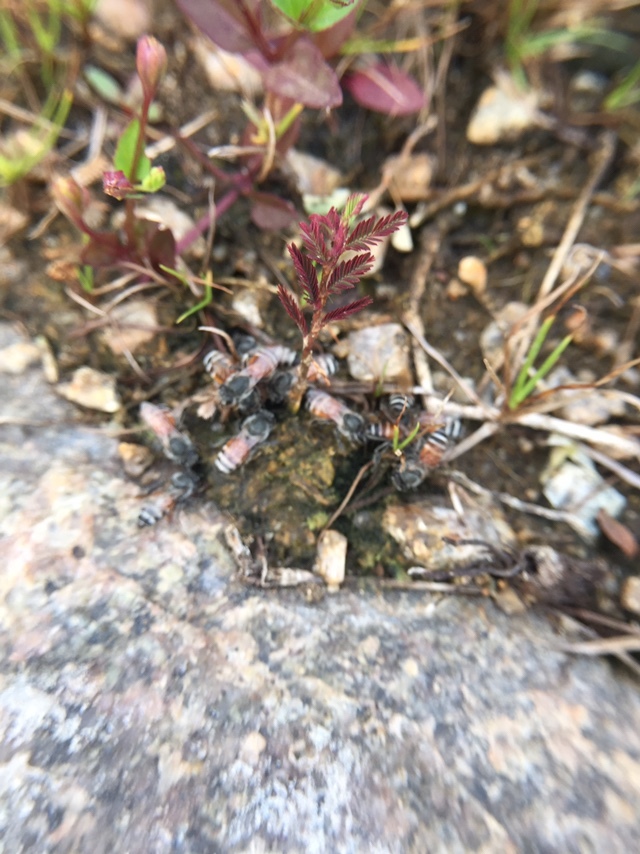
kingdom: Animalia
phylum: Arthropoda
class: Insecta
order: Hymenoptera
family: Apidae
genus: Apis
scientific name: Apis florea
